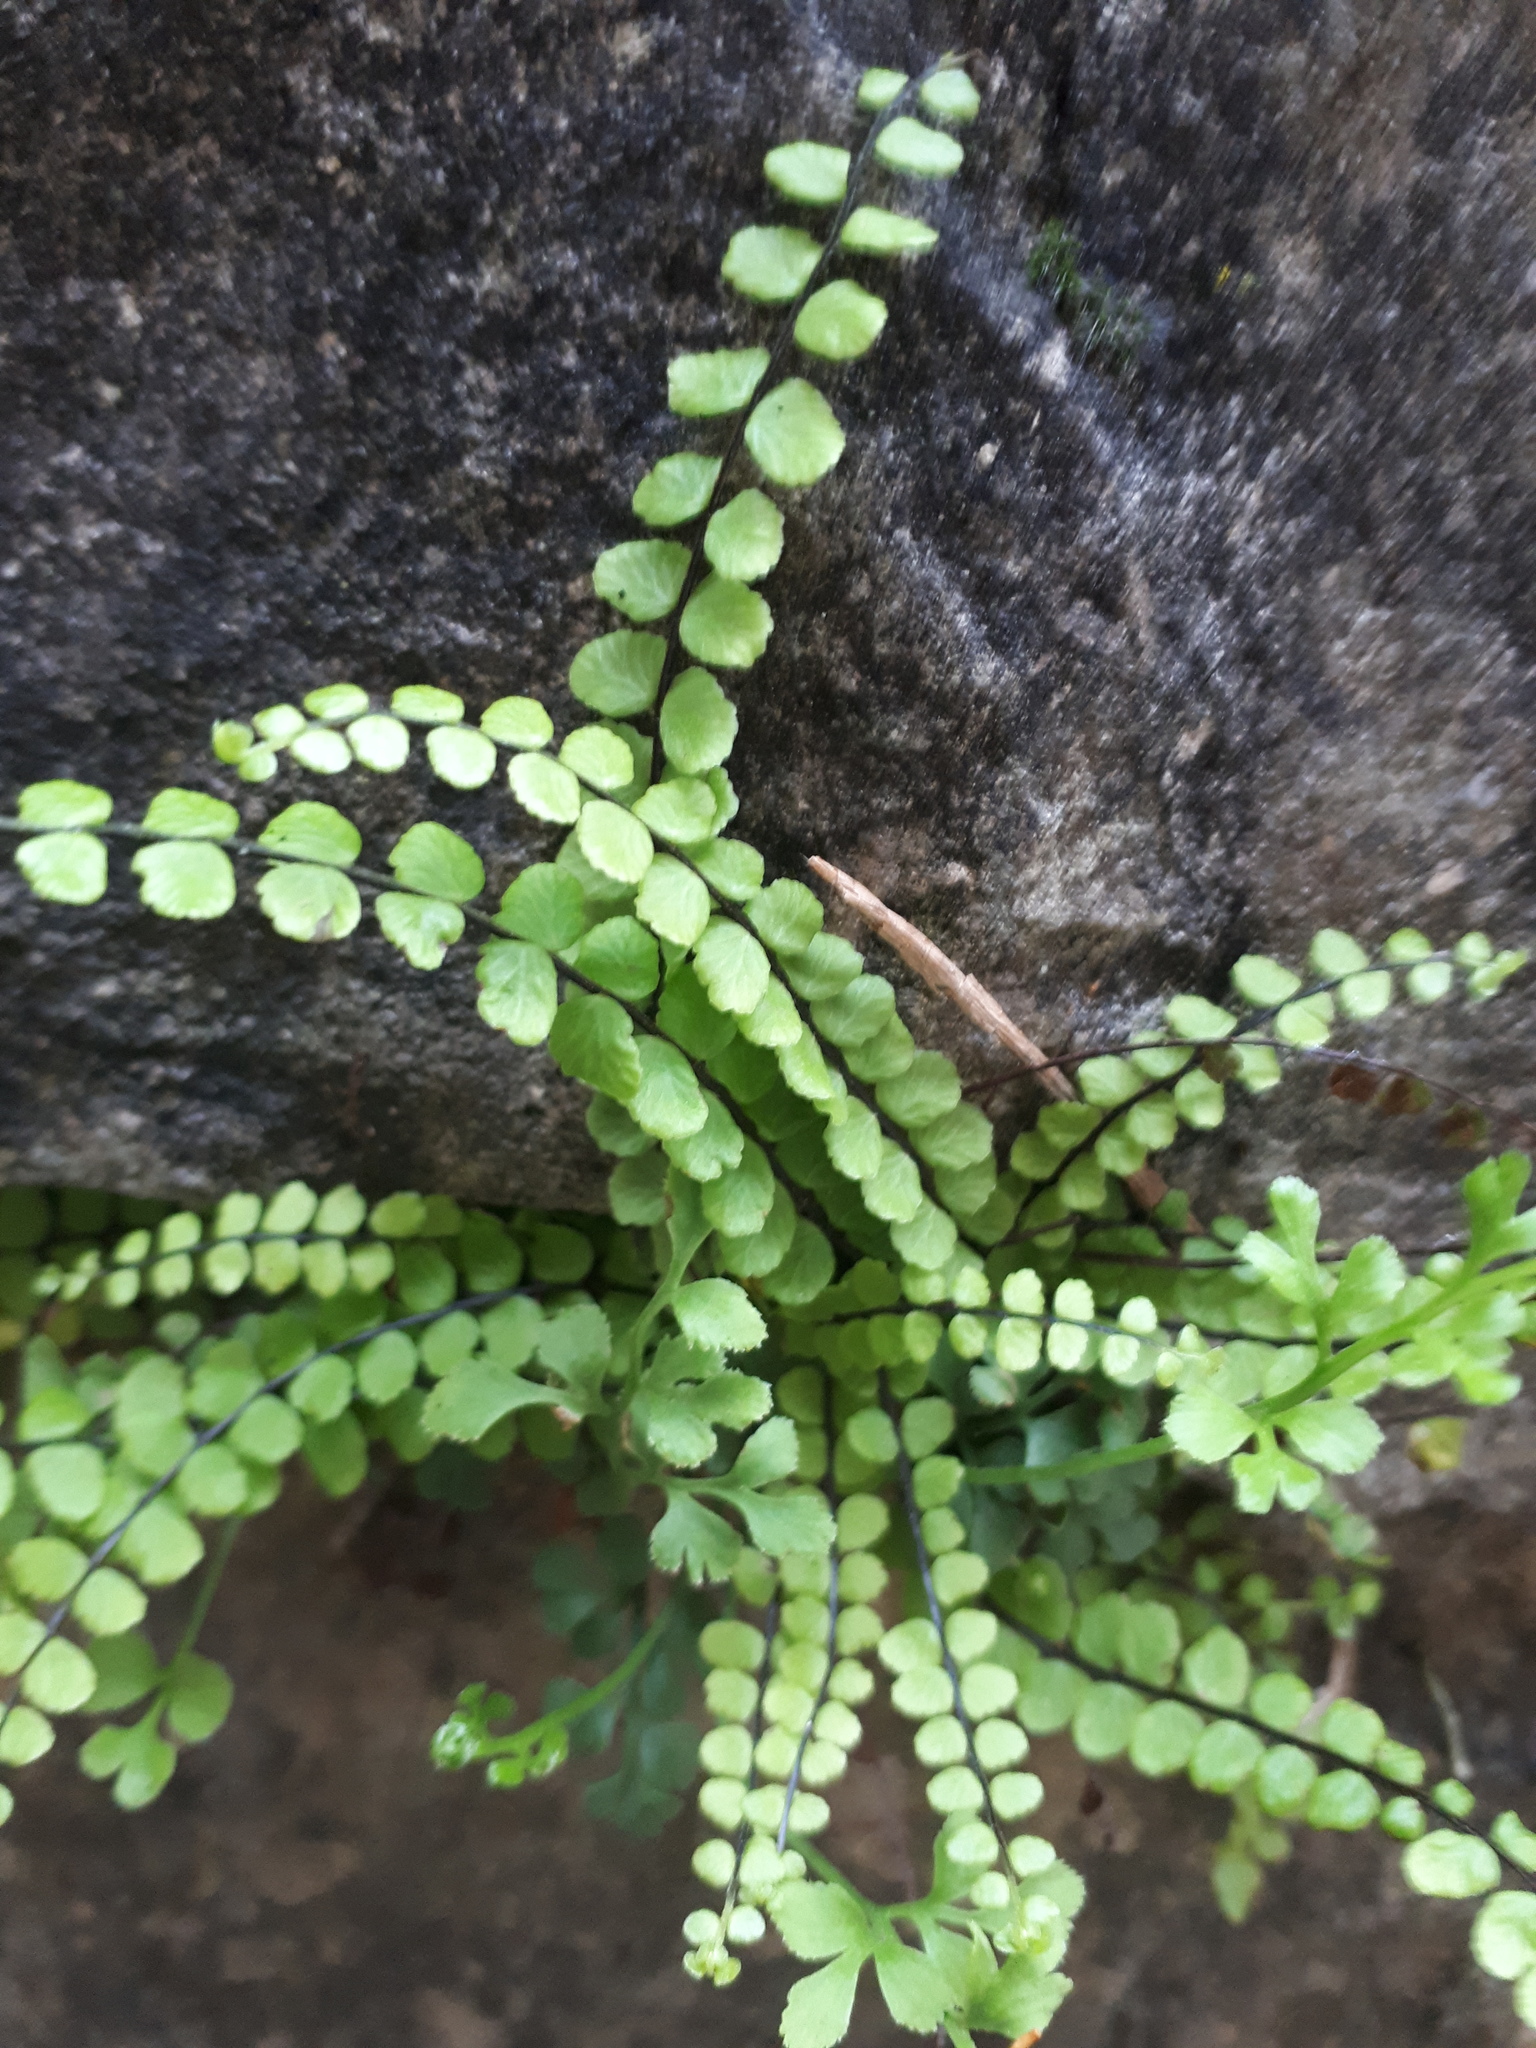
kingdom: Plantae
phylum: Tracheophyta
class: Polypodiopsida
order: Polypodiales
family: Aspleniaceae
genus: Asplenium
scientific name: Asplenium trichomanes
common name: Maidenhair spleenwort
